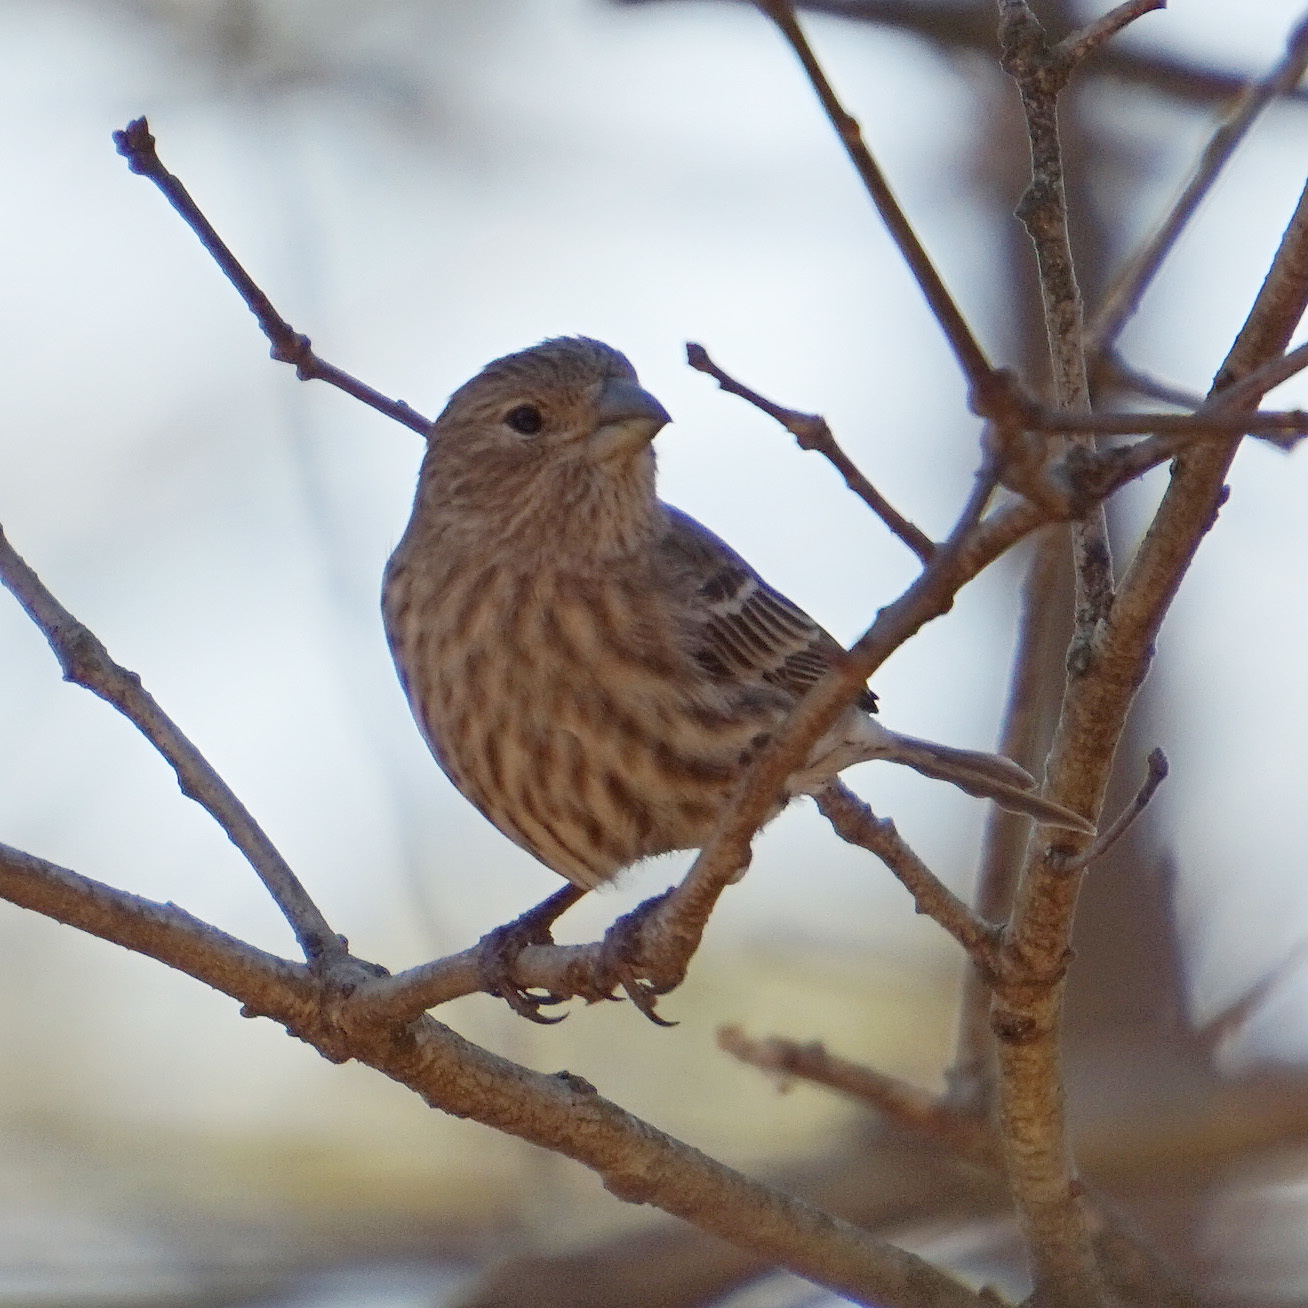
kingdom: Animalia
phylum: Chordata
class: Aves
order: Passeriformes
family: Fringillidae
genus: Haemorhous
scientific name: Haemorhous mexicanus
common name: House finch
